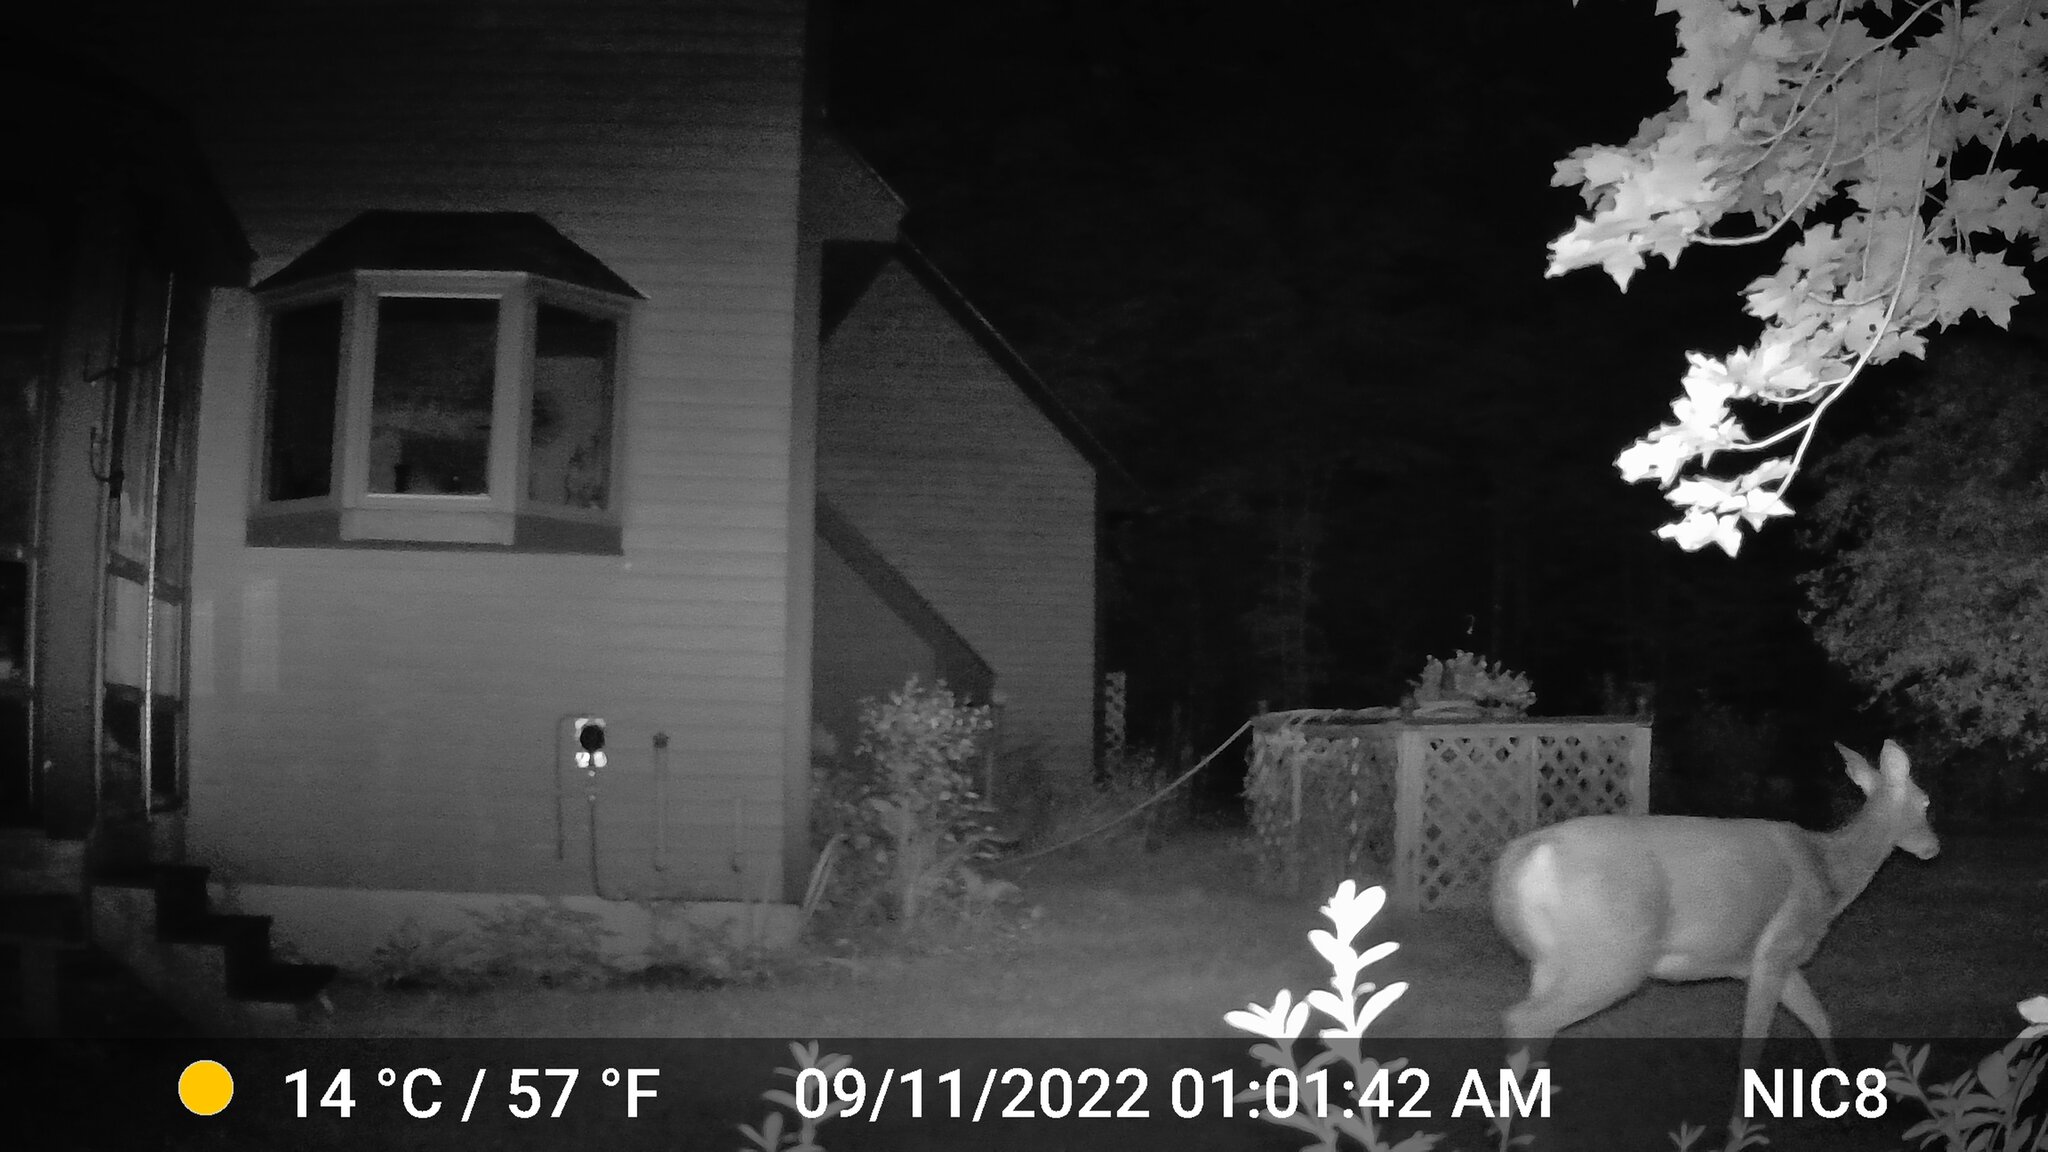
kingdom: Animalia
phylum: Chordata
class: Mammalia
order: Artiodactyla
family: Cervidae
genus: Odocoileus
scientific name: Odocoileus virginianus
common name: White-tailed deer
